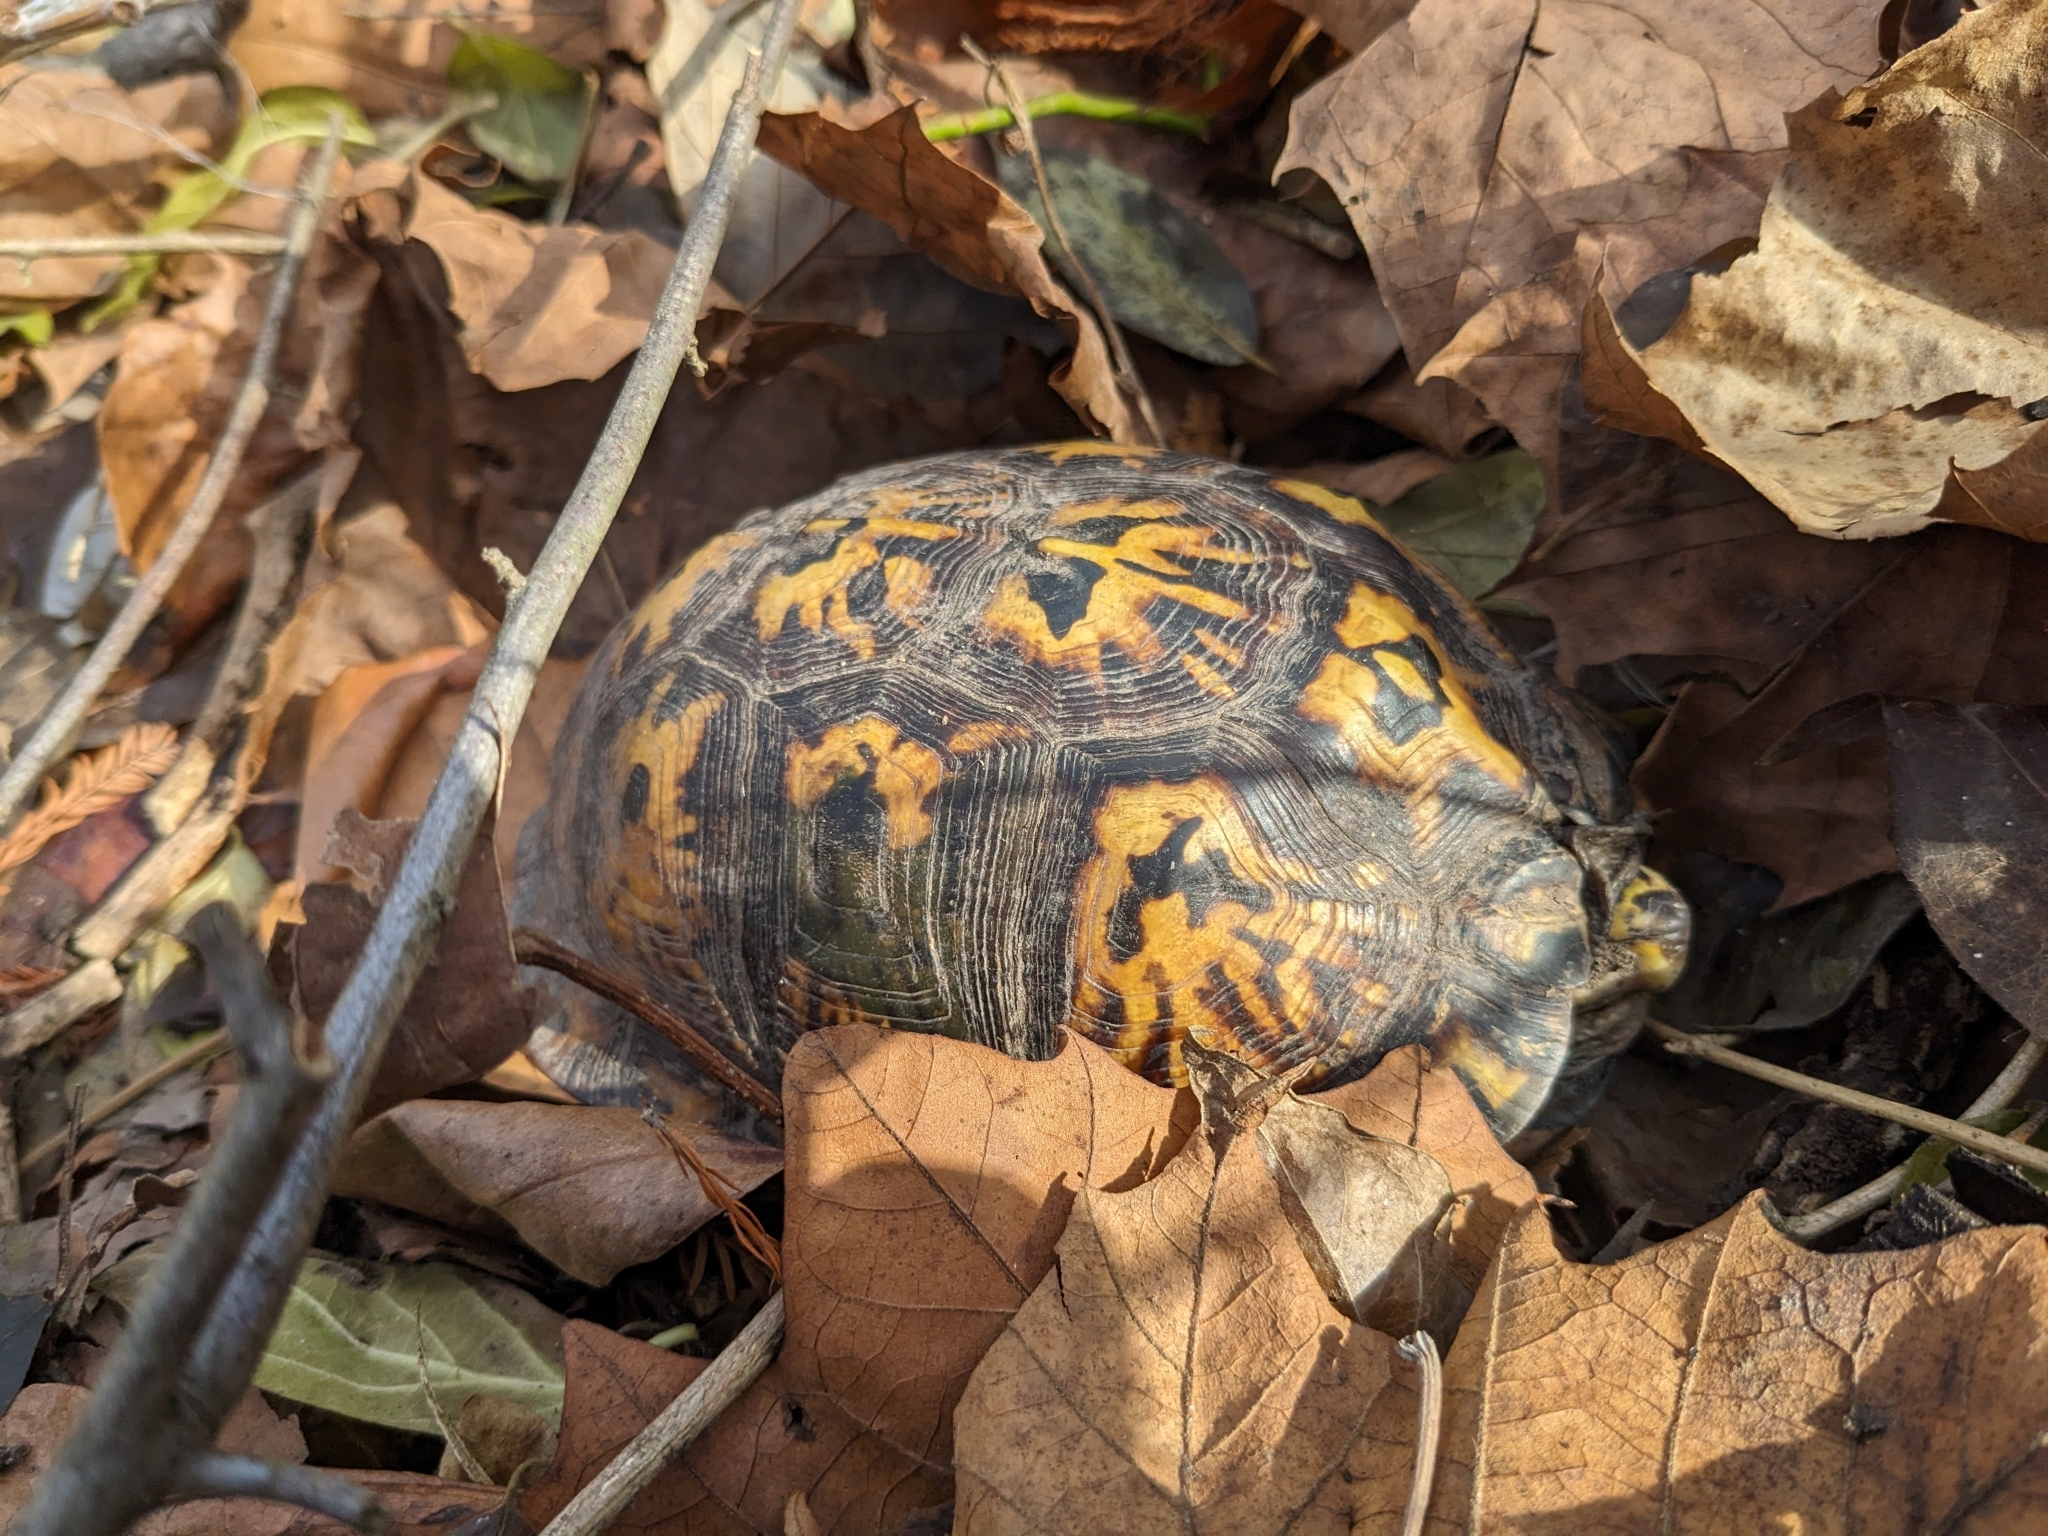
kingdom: Animalia
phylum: Chordata
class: Testudines
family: Emydidae
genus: Terrapene
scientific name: Terrapene carolina
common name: Common box turtle
